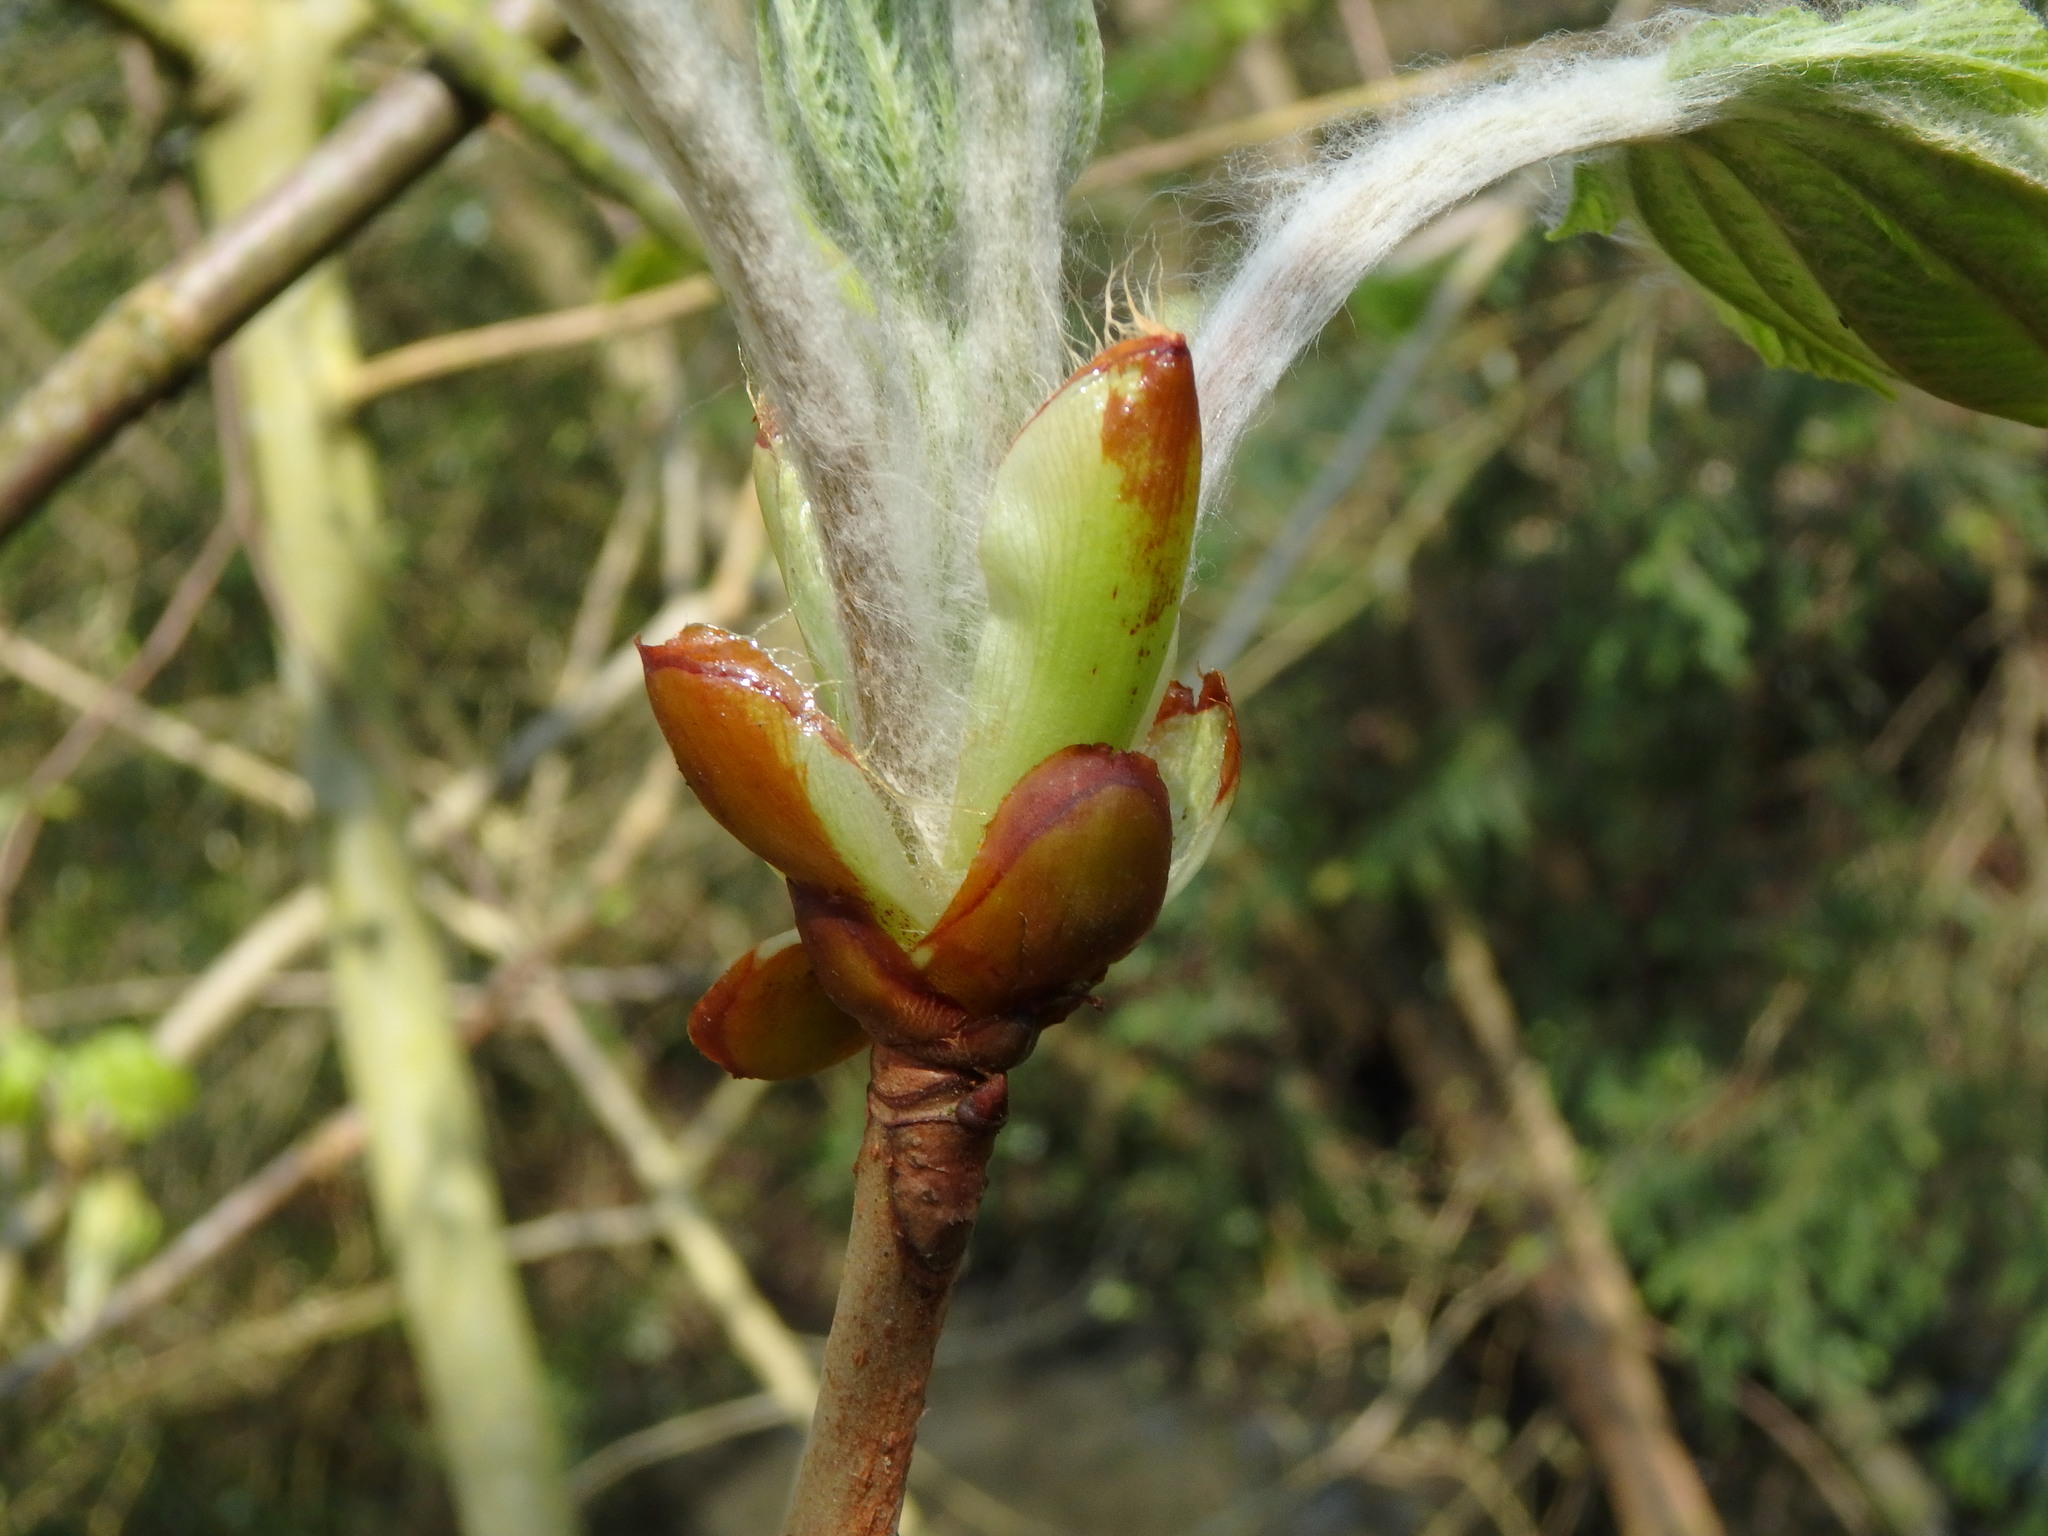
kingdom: Plantae
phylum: Tracheophyta
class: Magnoliopsida
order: Sapindales
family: Sapindaceae
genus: Aesculus
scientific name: Aesculus hippocastanum
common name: Horse-chestnut
